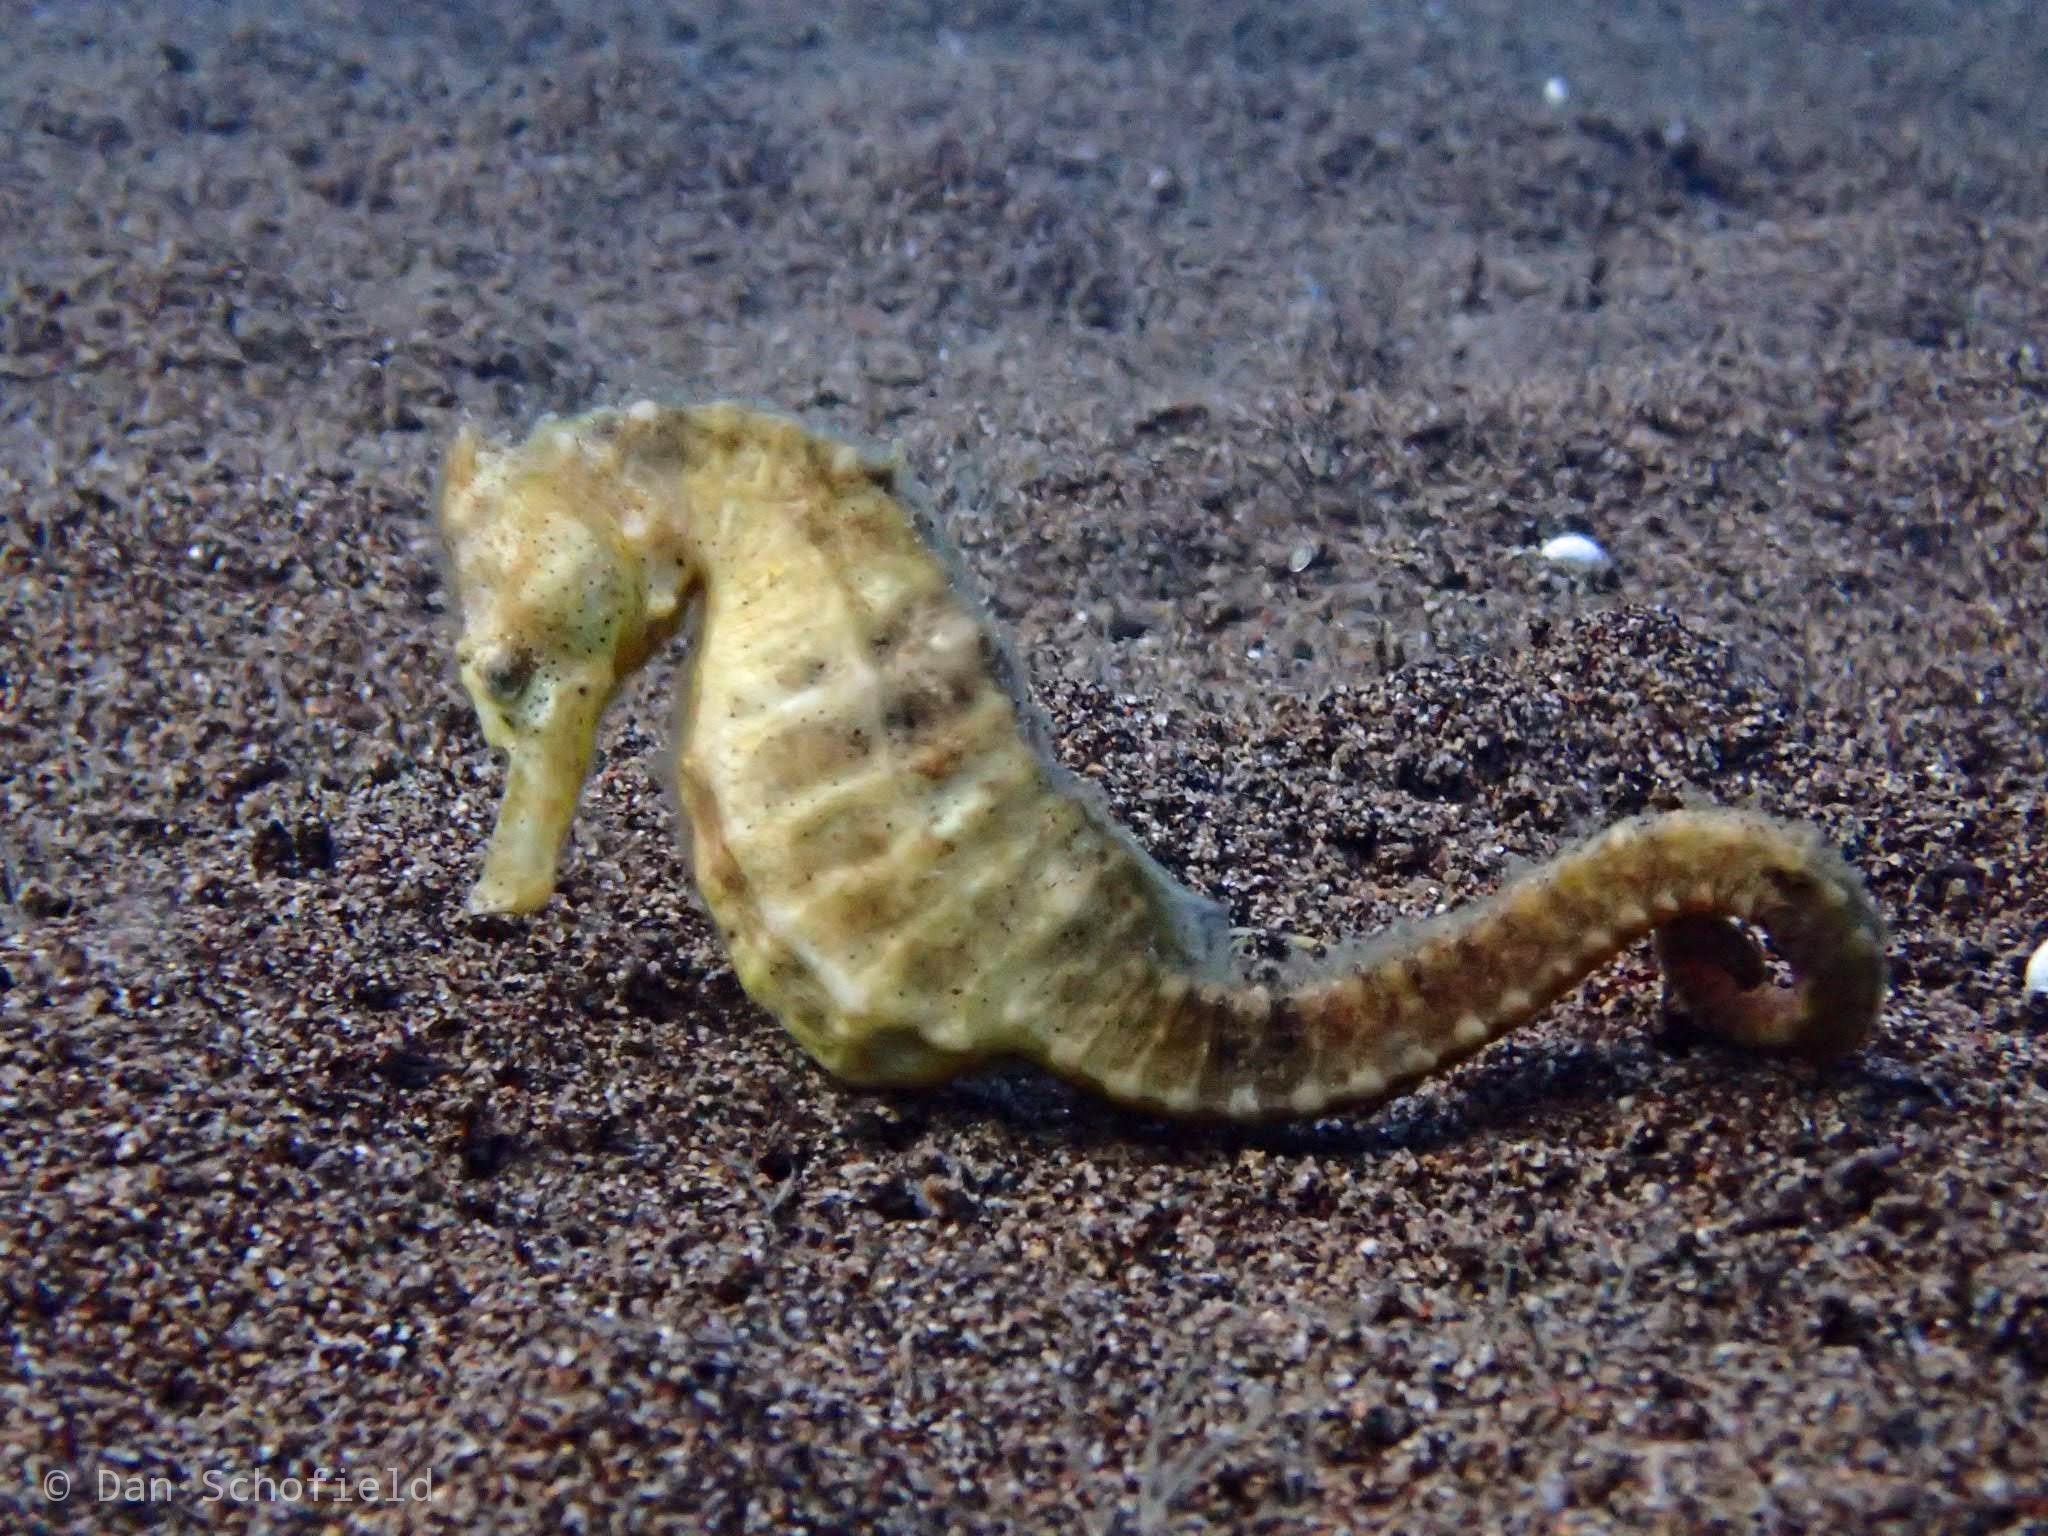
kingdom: Animalia
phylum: Chordata
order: Syngnathiformes
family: Syngnathidae
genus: Hippocampus
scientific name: Hippocampus kuda
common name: Spotted seahorse
